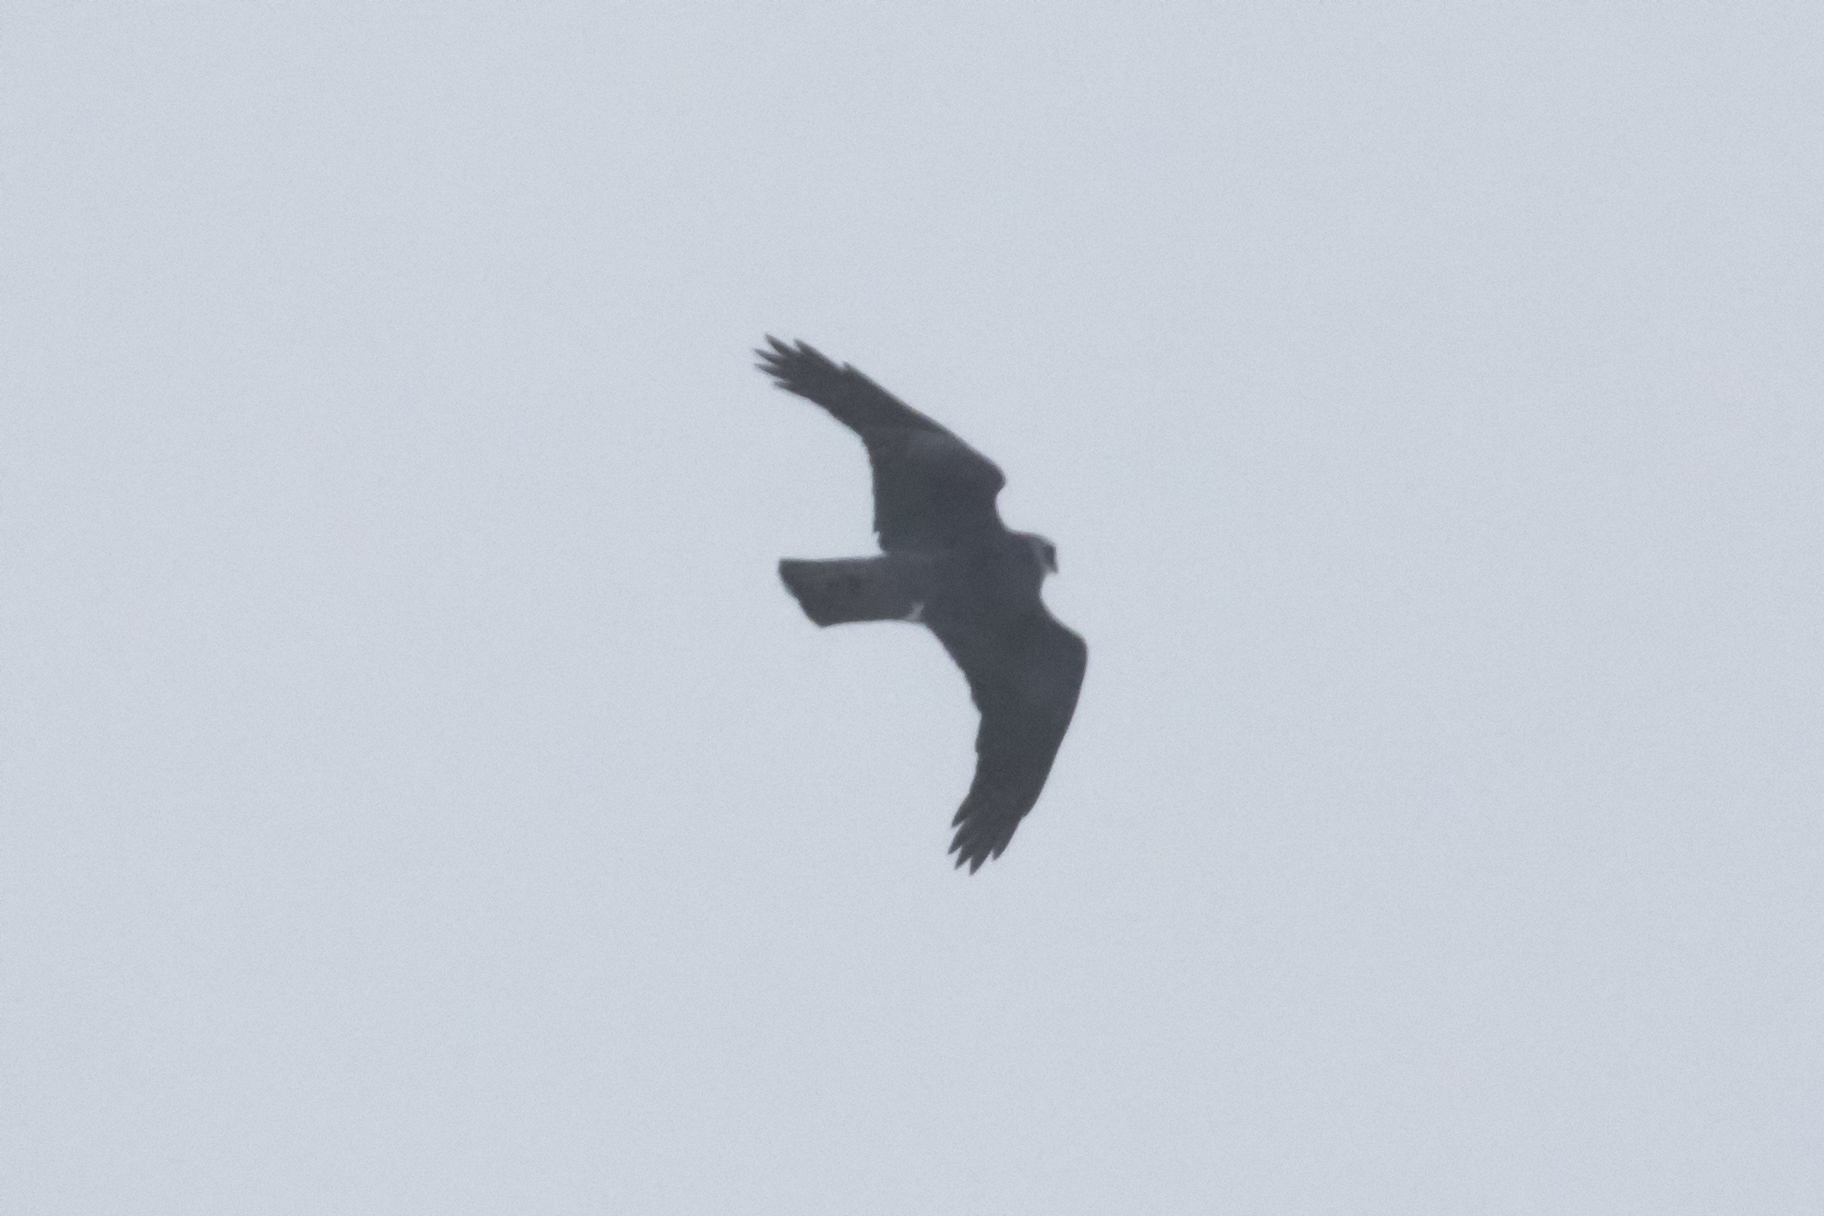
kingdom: Animalia
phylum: Chordata
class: Aves
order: Accipitriformes
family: Accipitridae
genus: Accipiter
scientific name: Accipiter nisus
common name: Eurasian sparrowhawk
